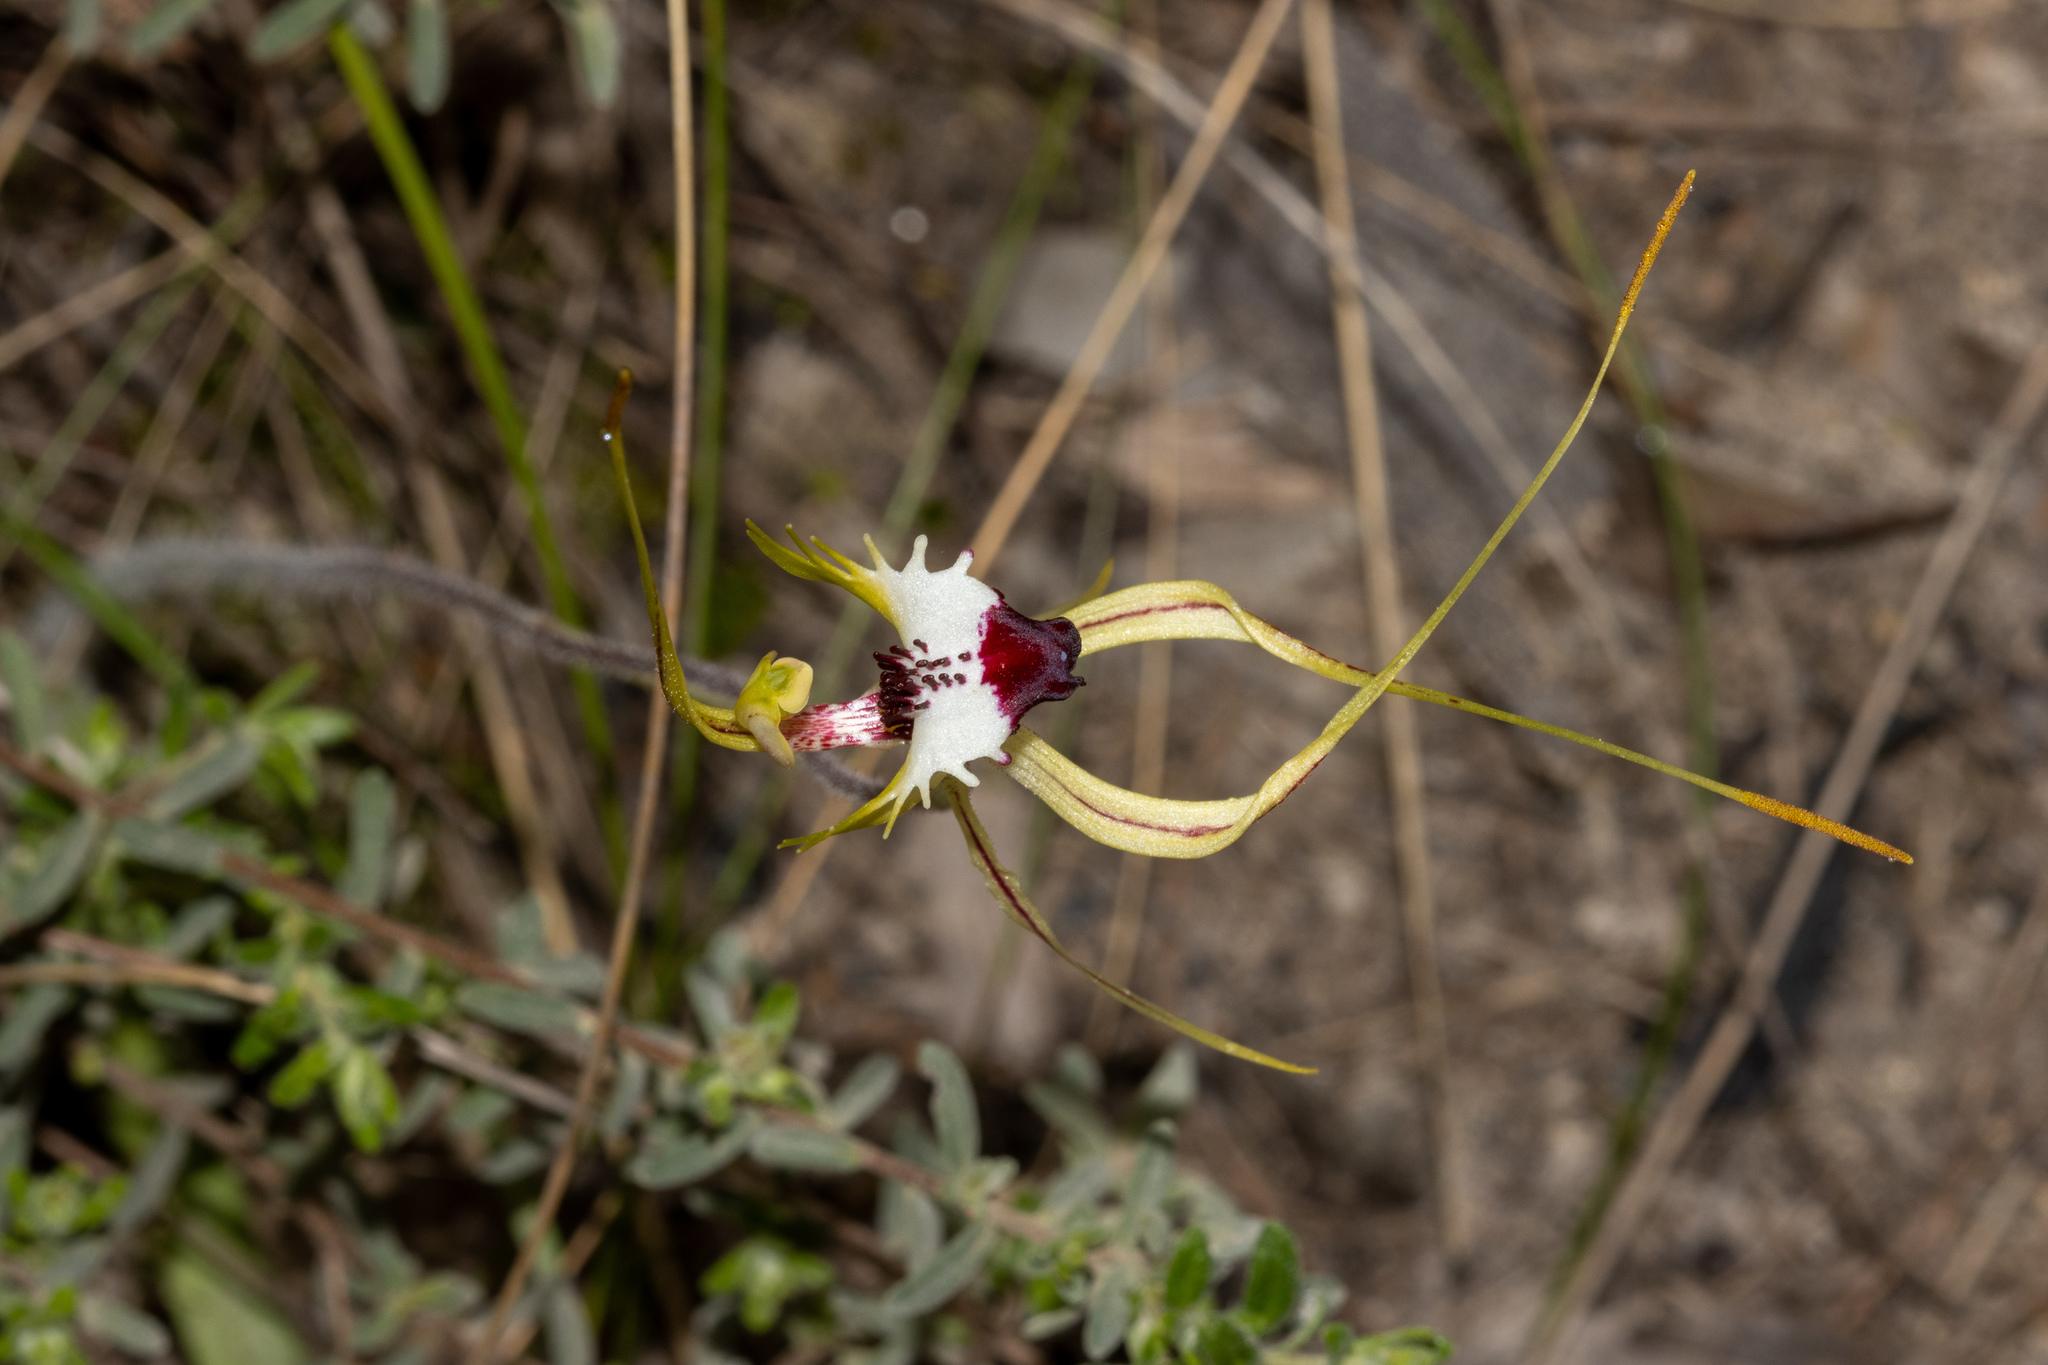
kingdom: Plantae
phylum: Tracheophyta
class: Liliopsida
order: Asparagales
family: Orchidaceae
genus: Caladenia
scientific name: Caladenia tentaculata
